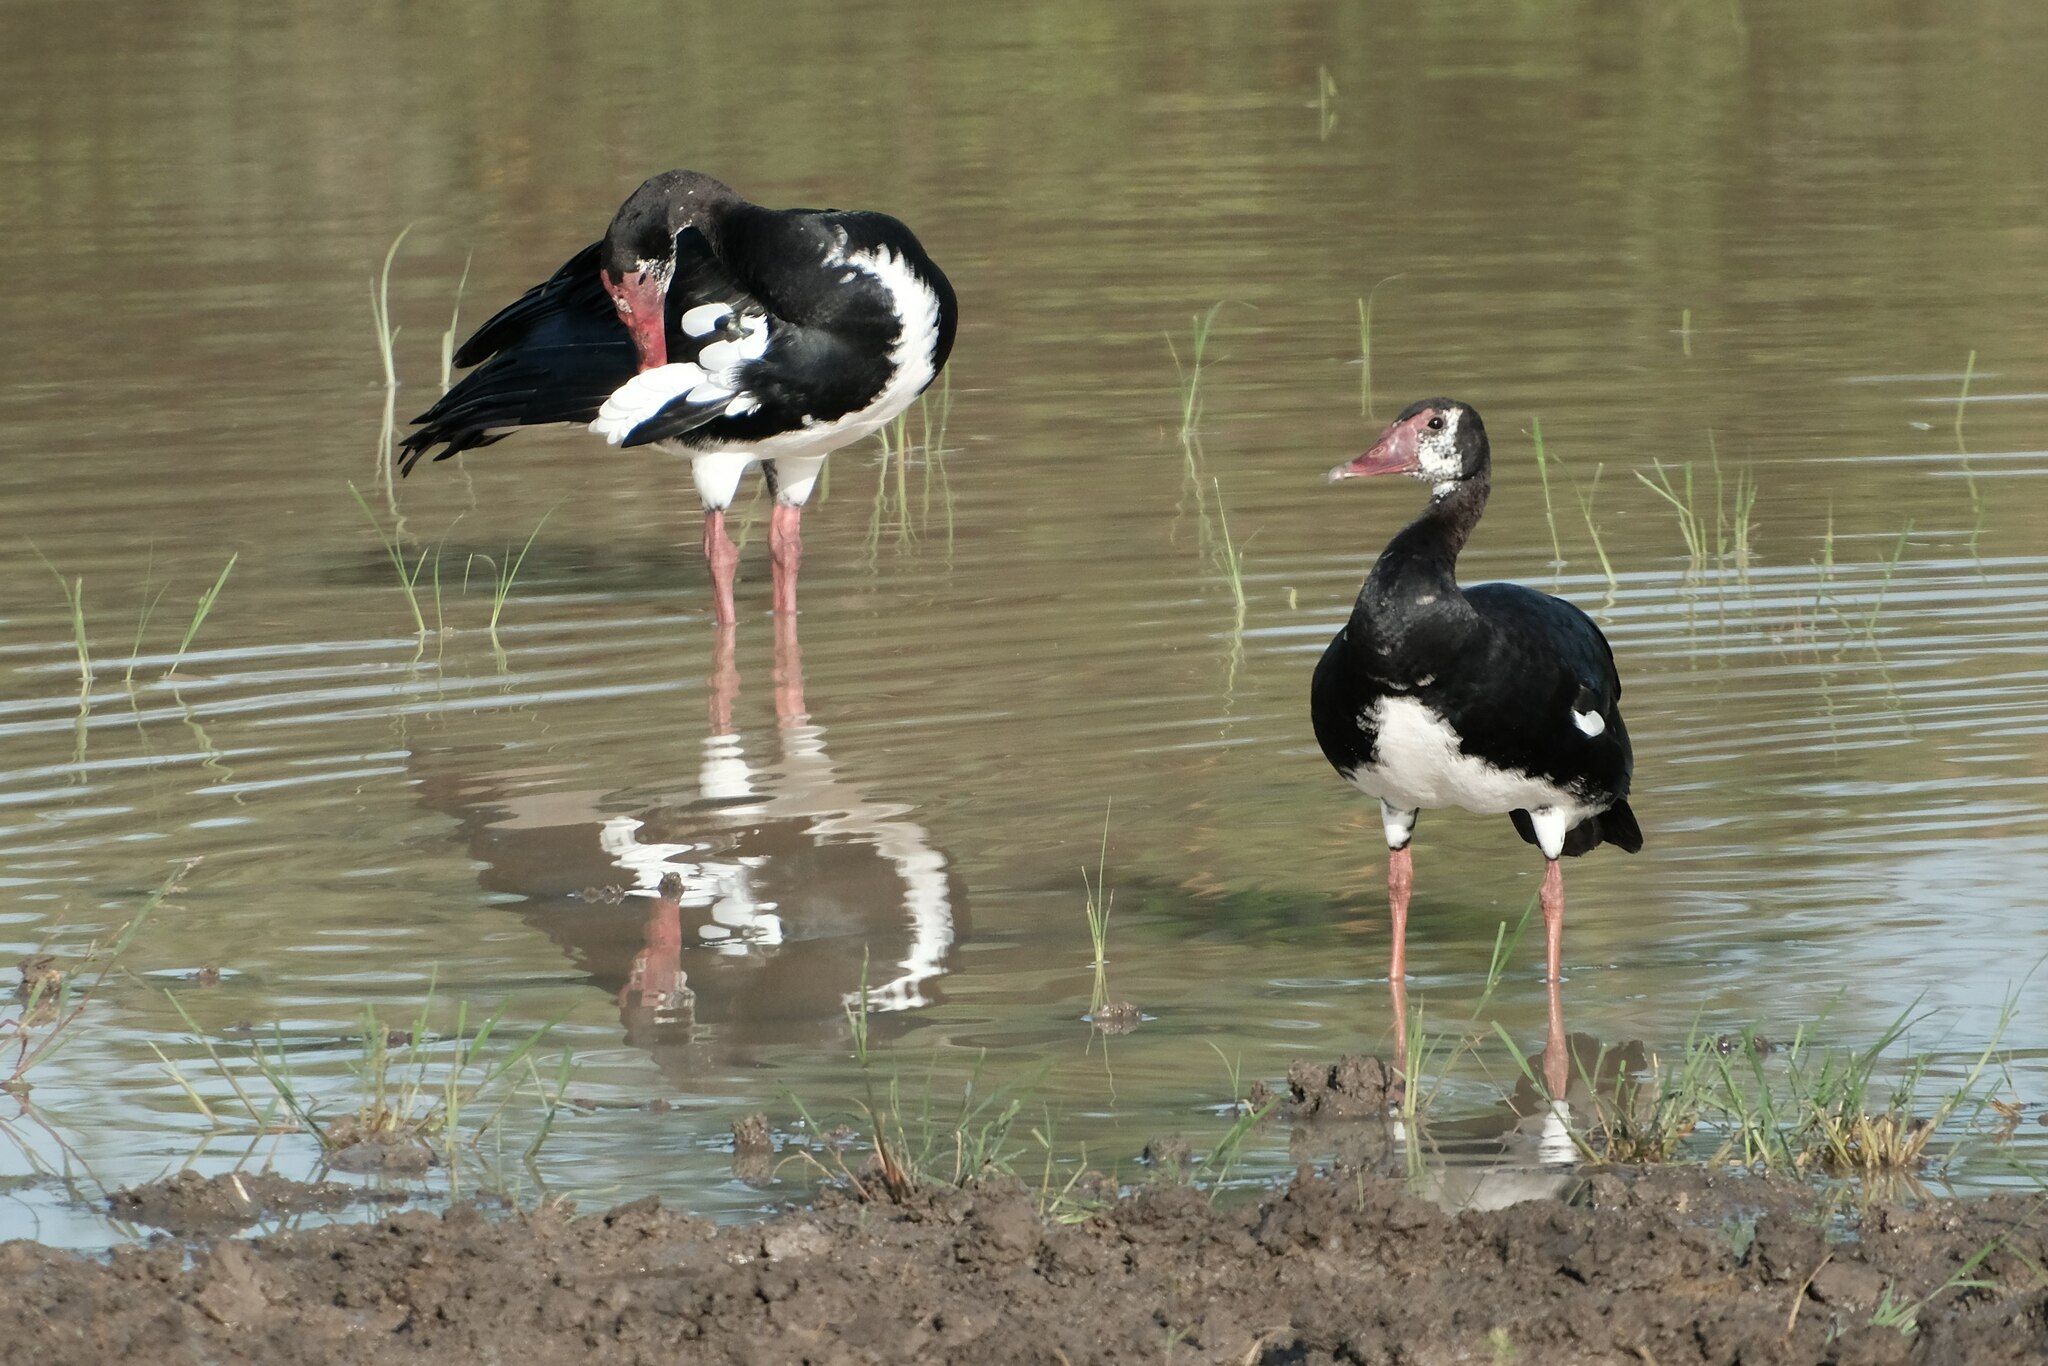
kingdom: Animalia
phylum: Chordata
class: Aves
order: Anseriformes
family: Anatidae
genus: Plectropterus
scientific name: Plectropterus gambensis
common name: Spur-winged goose
